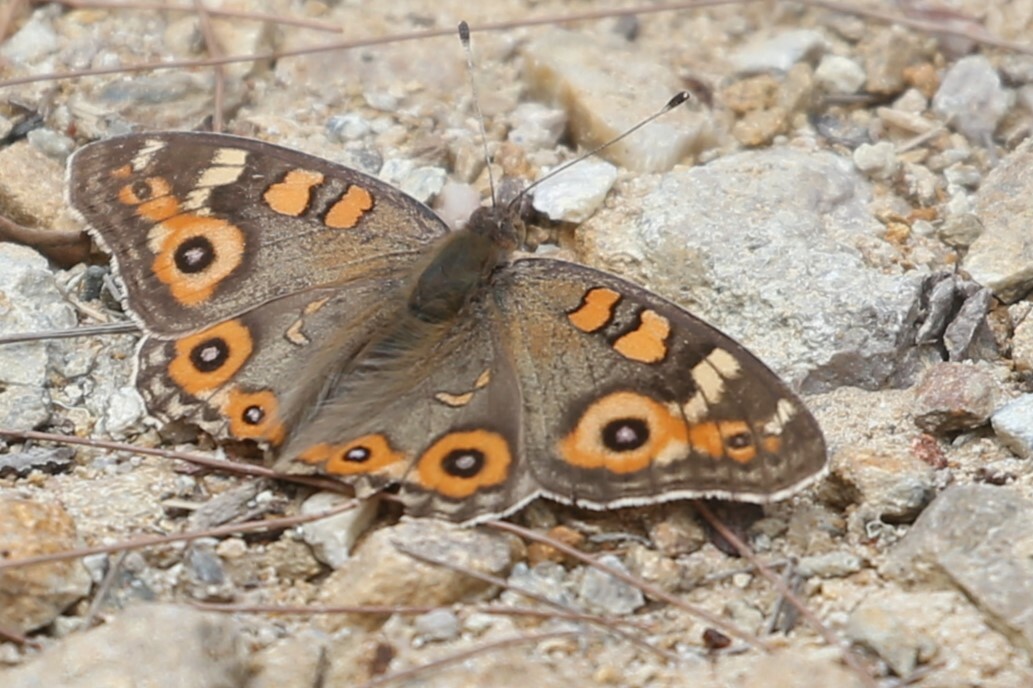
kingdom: Animalia
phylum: Arthropoda
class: Insecta
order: Lepidoptera
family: Nymphalidae
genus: Junonia
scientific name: Junonia villida
